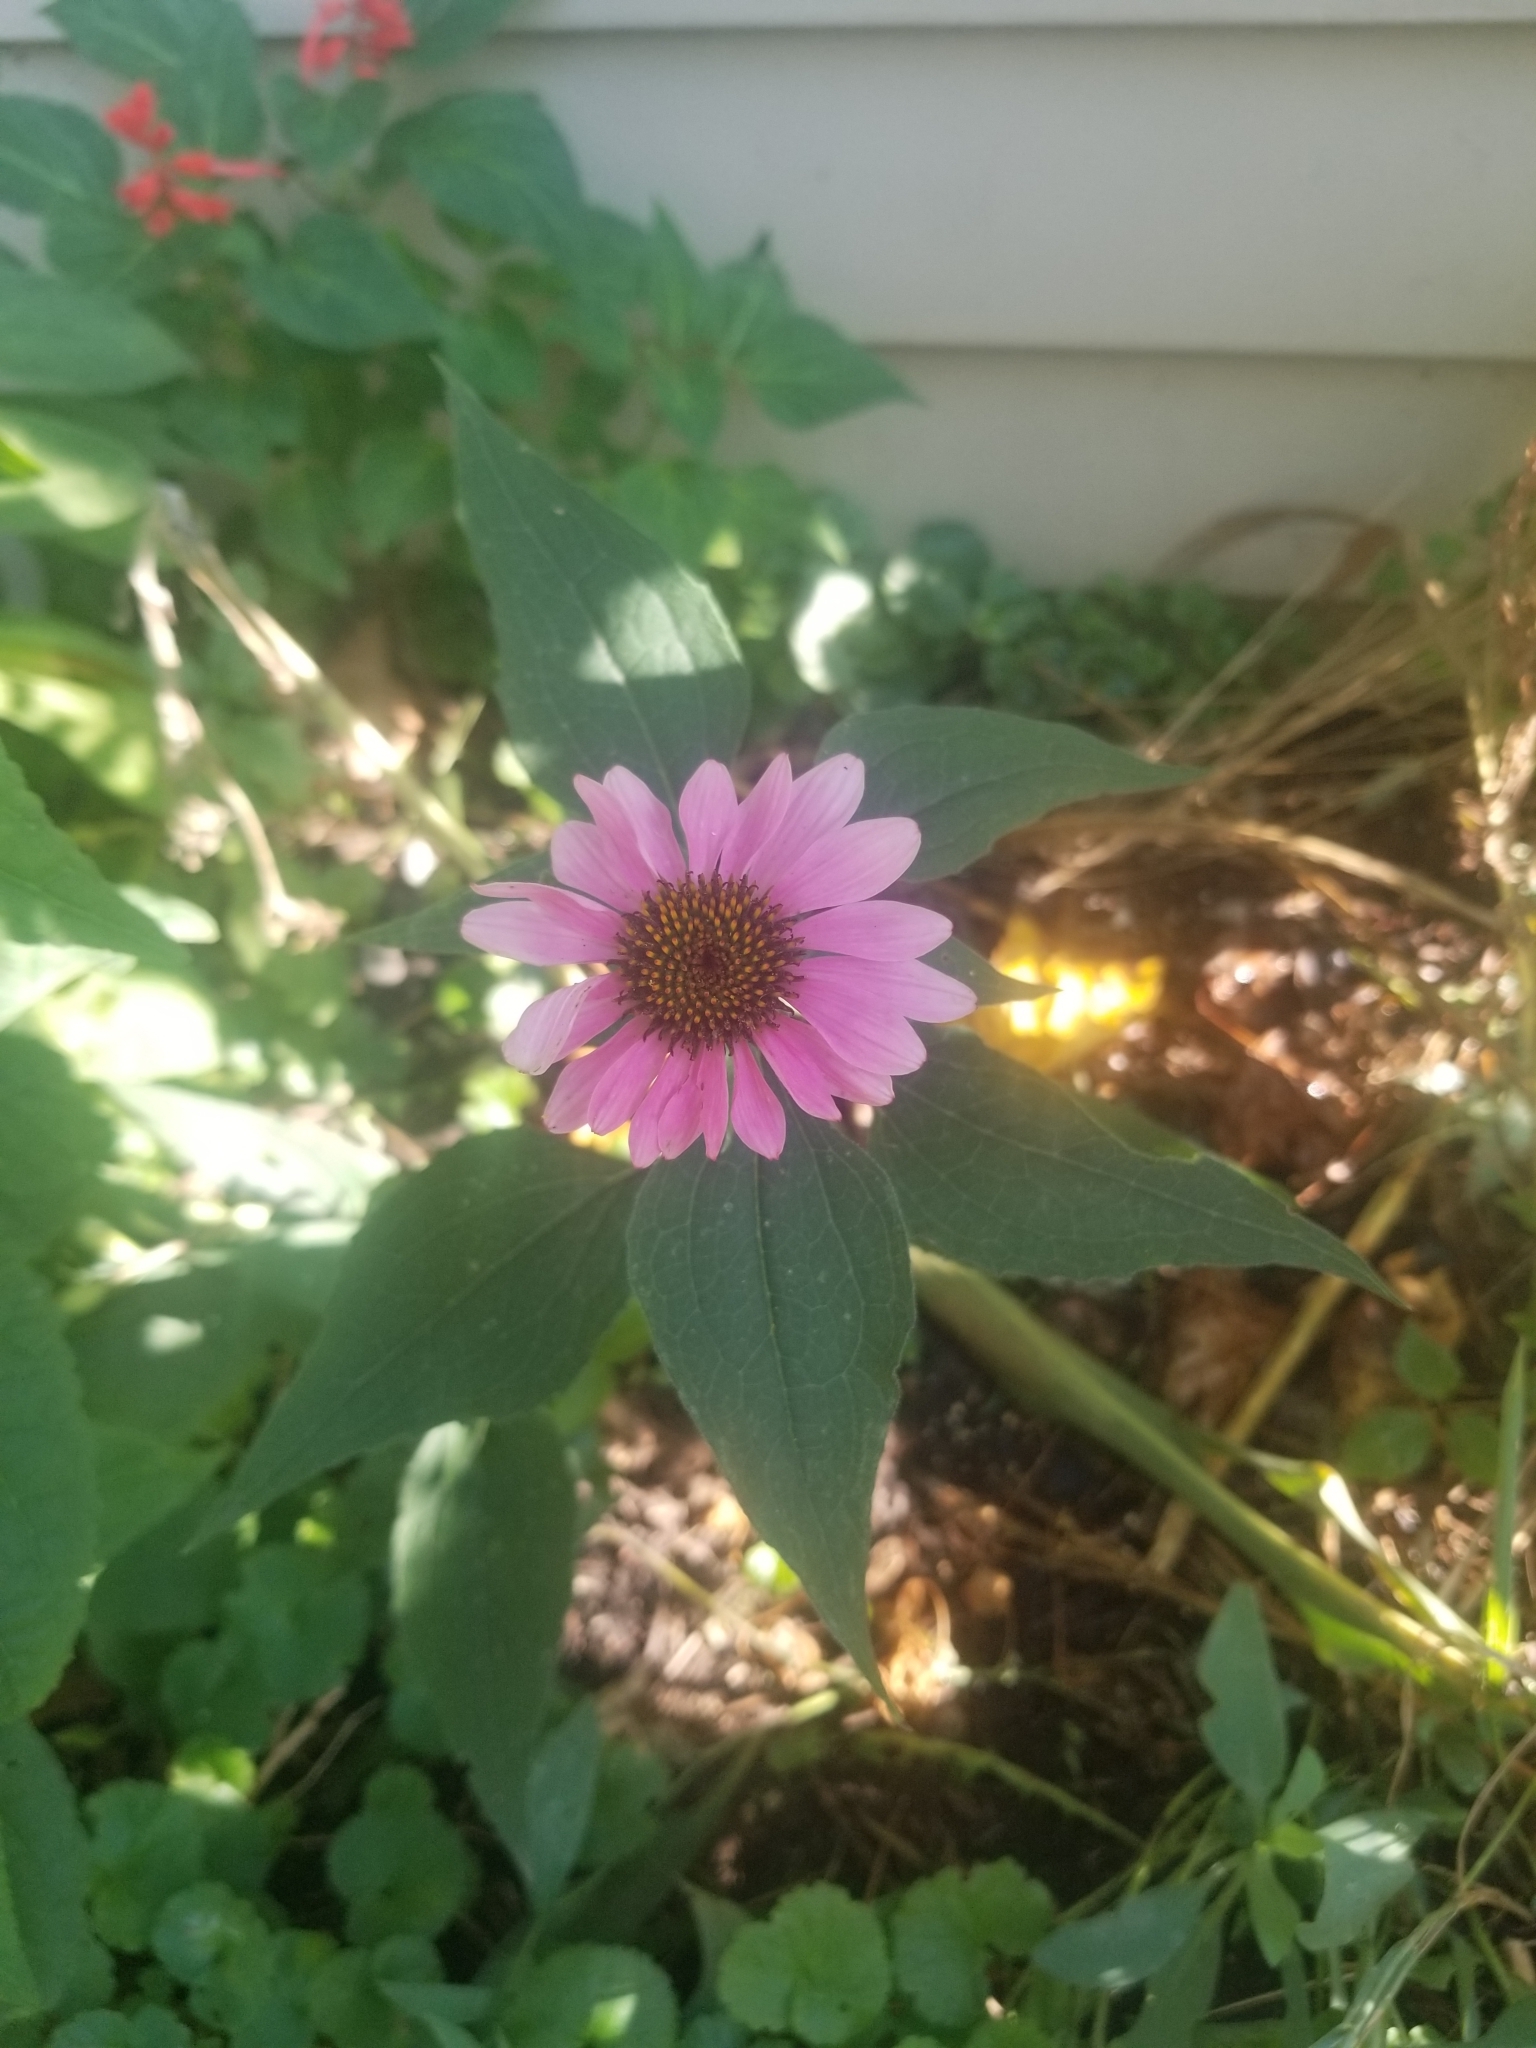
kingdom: Plantae
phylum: Tracheophyta
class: Magnoliopsida
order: Asterales
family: Asteraceae
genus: Echinacea
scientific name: Echinacea purpurea
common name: Broad-leaved purple coneflower
